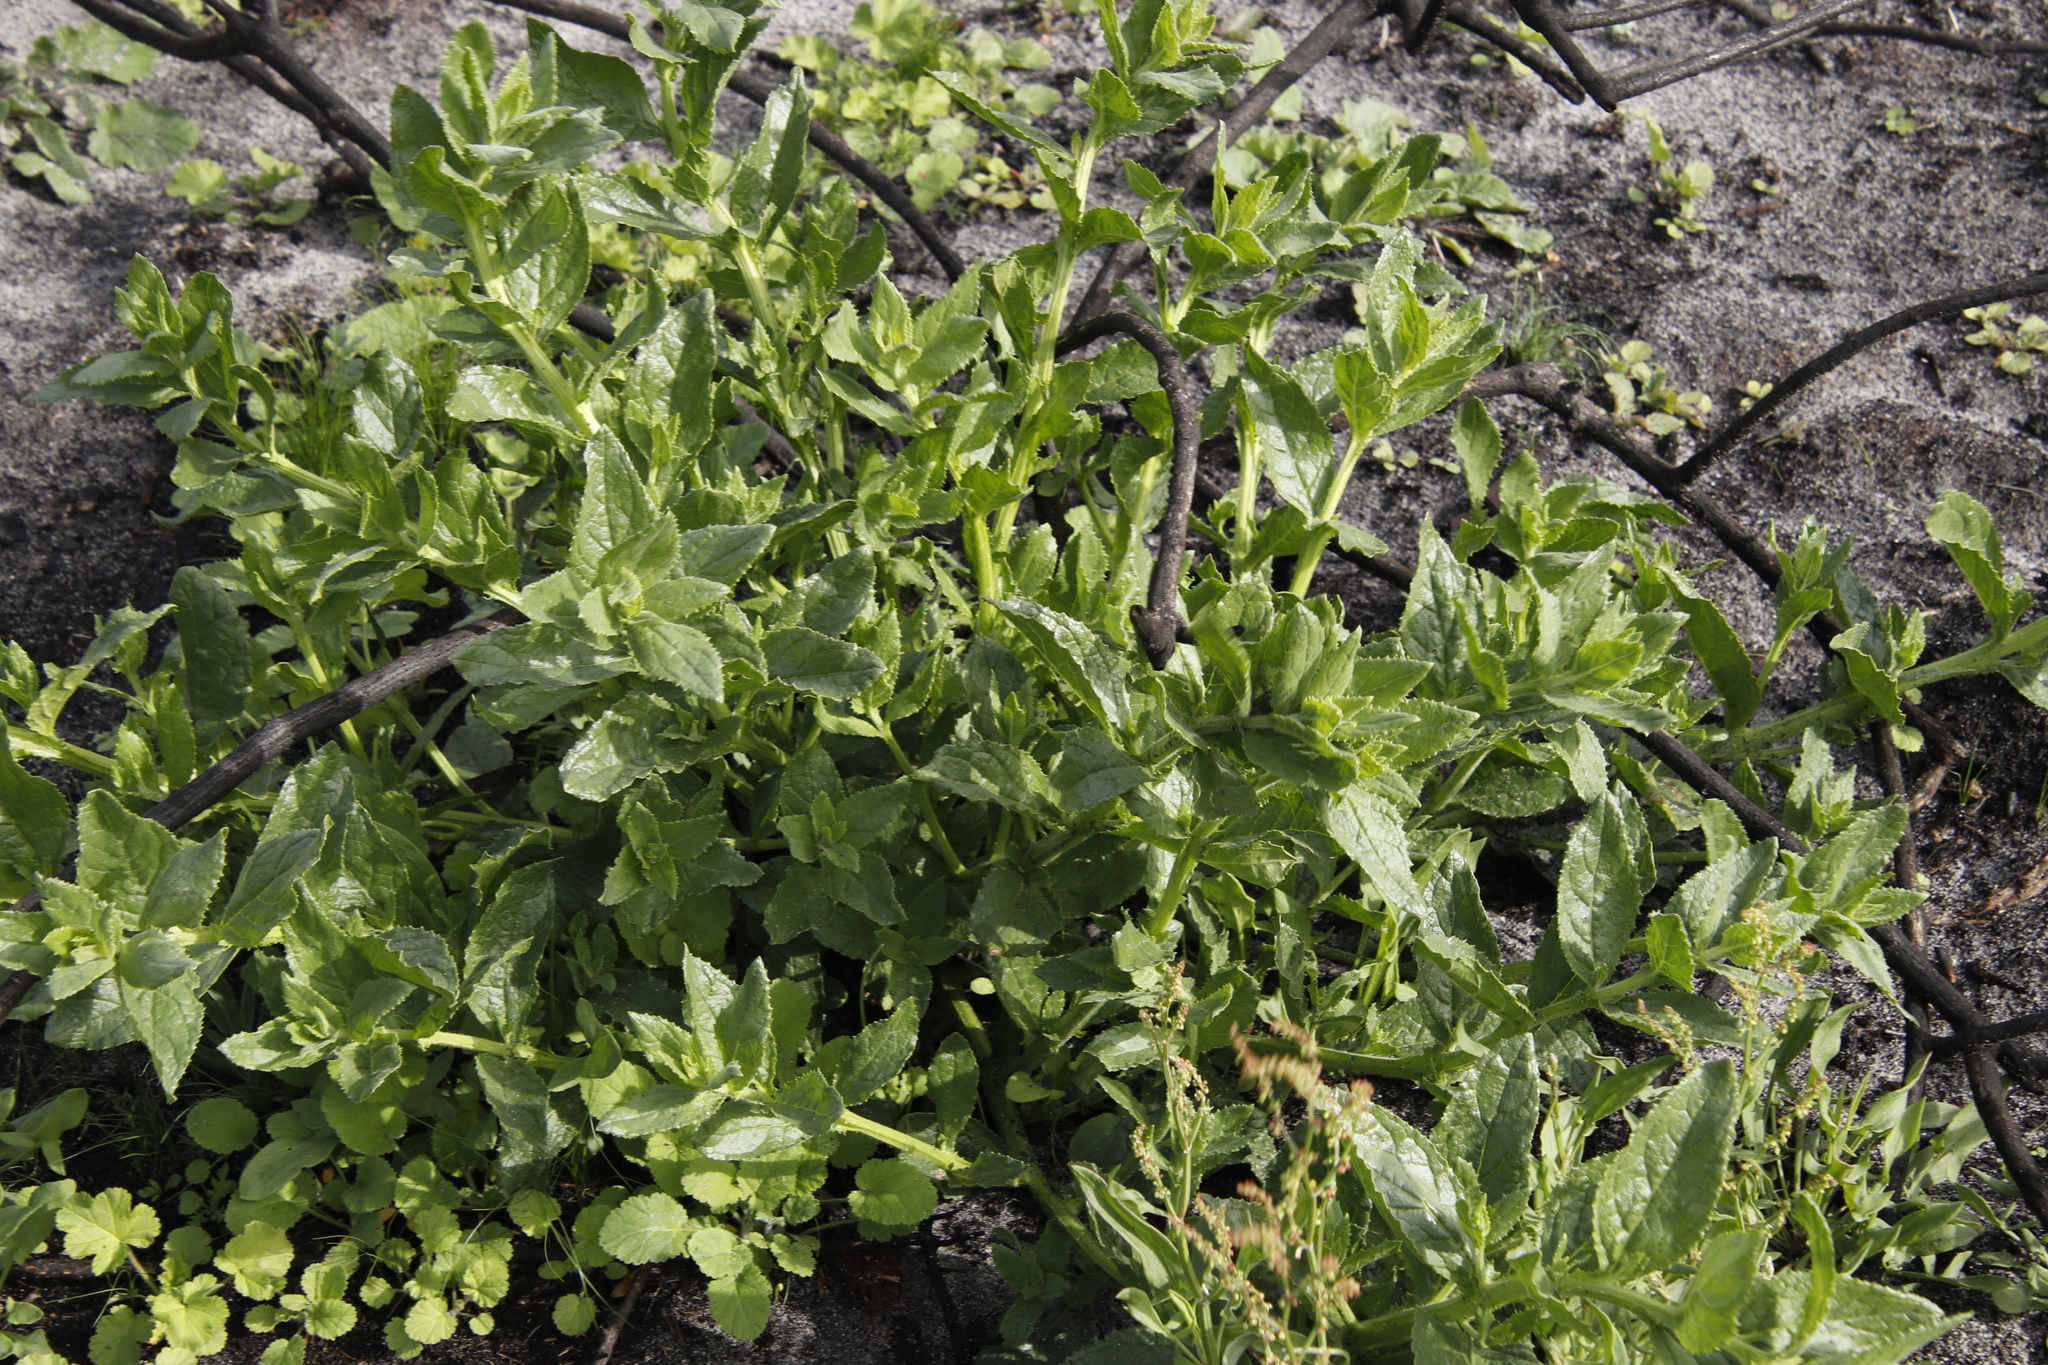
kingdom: Plantae
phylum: Tracheophyta
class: Magnoliopsida
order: Lamiales
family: Scrophulariaceae
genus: Oftia
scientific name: Oftia africana
